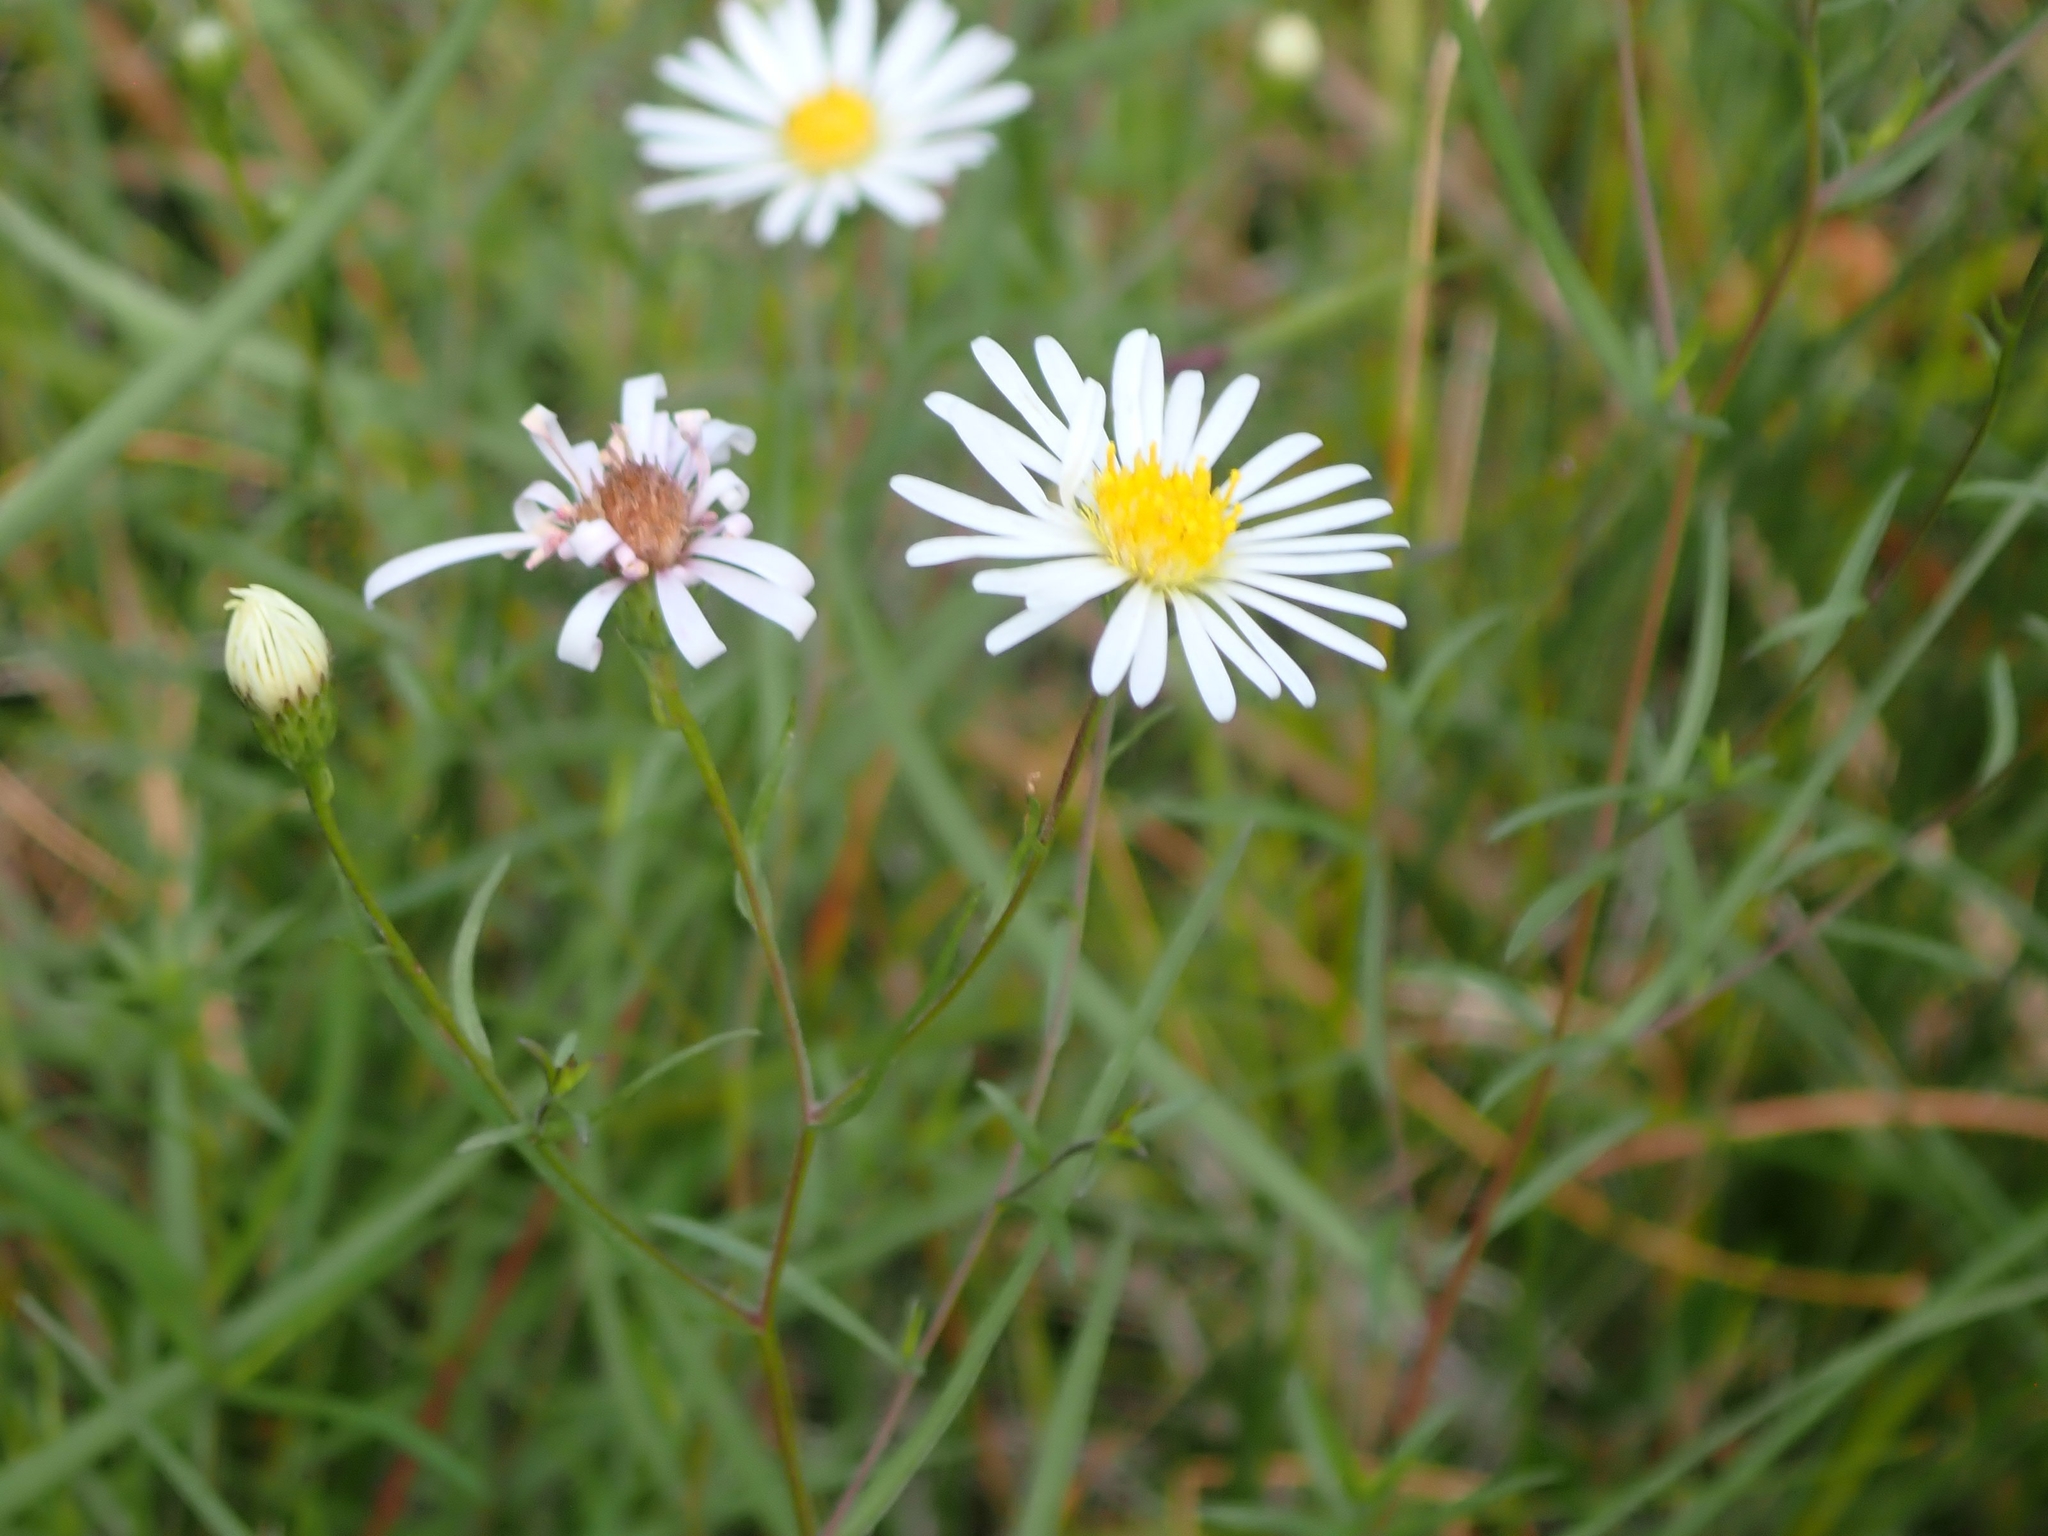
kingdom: Plantae
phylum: Tracheophyta
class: Magnoliopsida
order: Asterales
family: Asteraceae
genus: Symphyotrichum
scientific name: Symphyotrichum boreale
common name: Northern bog aster
